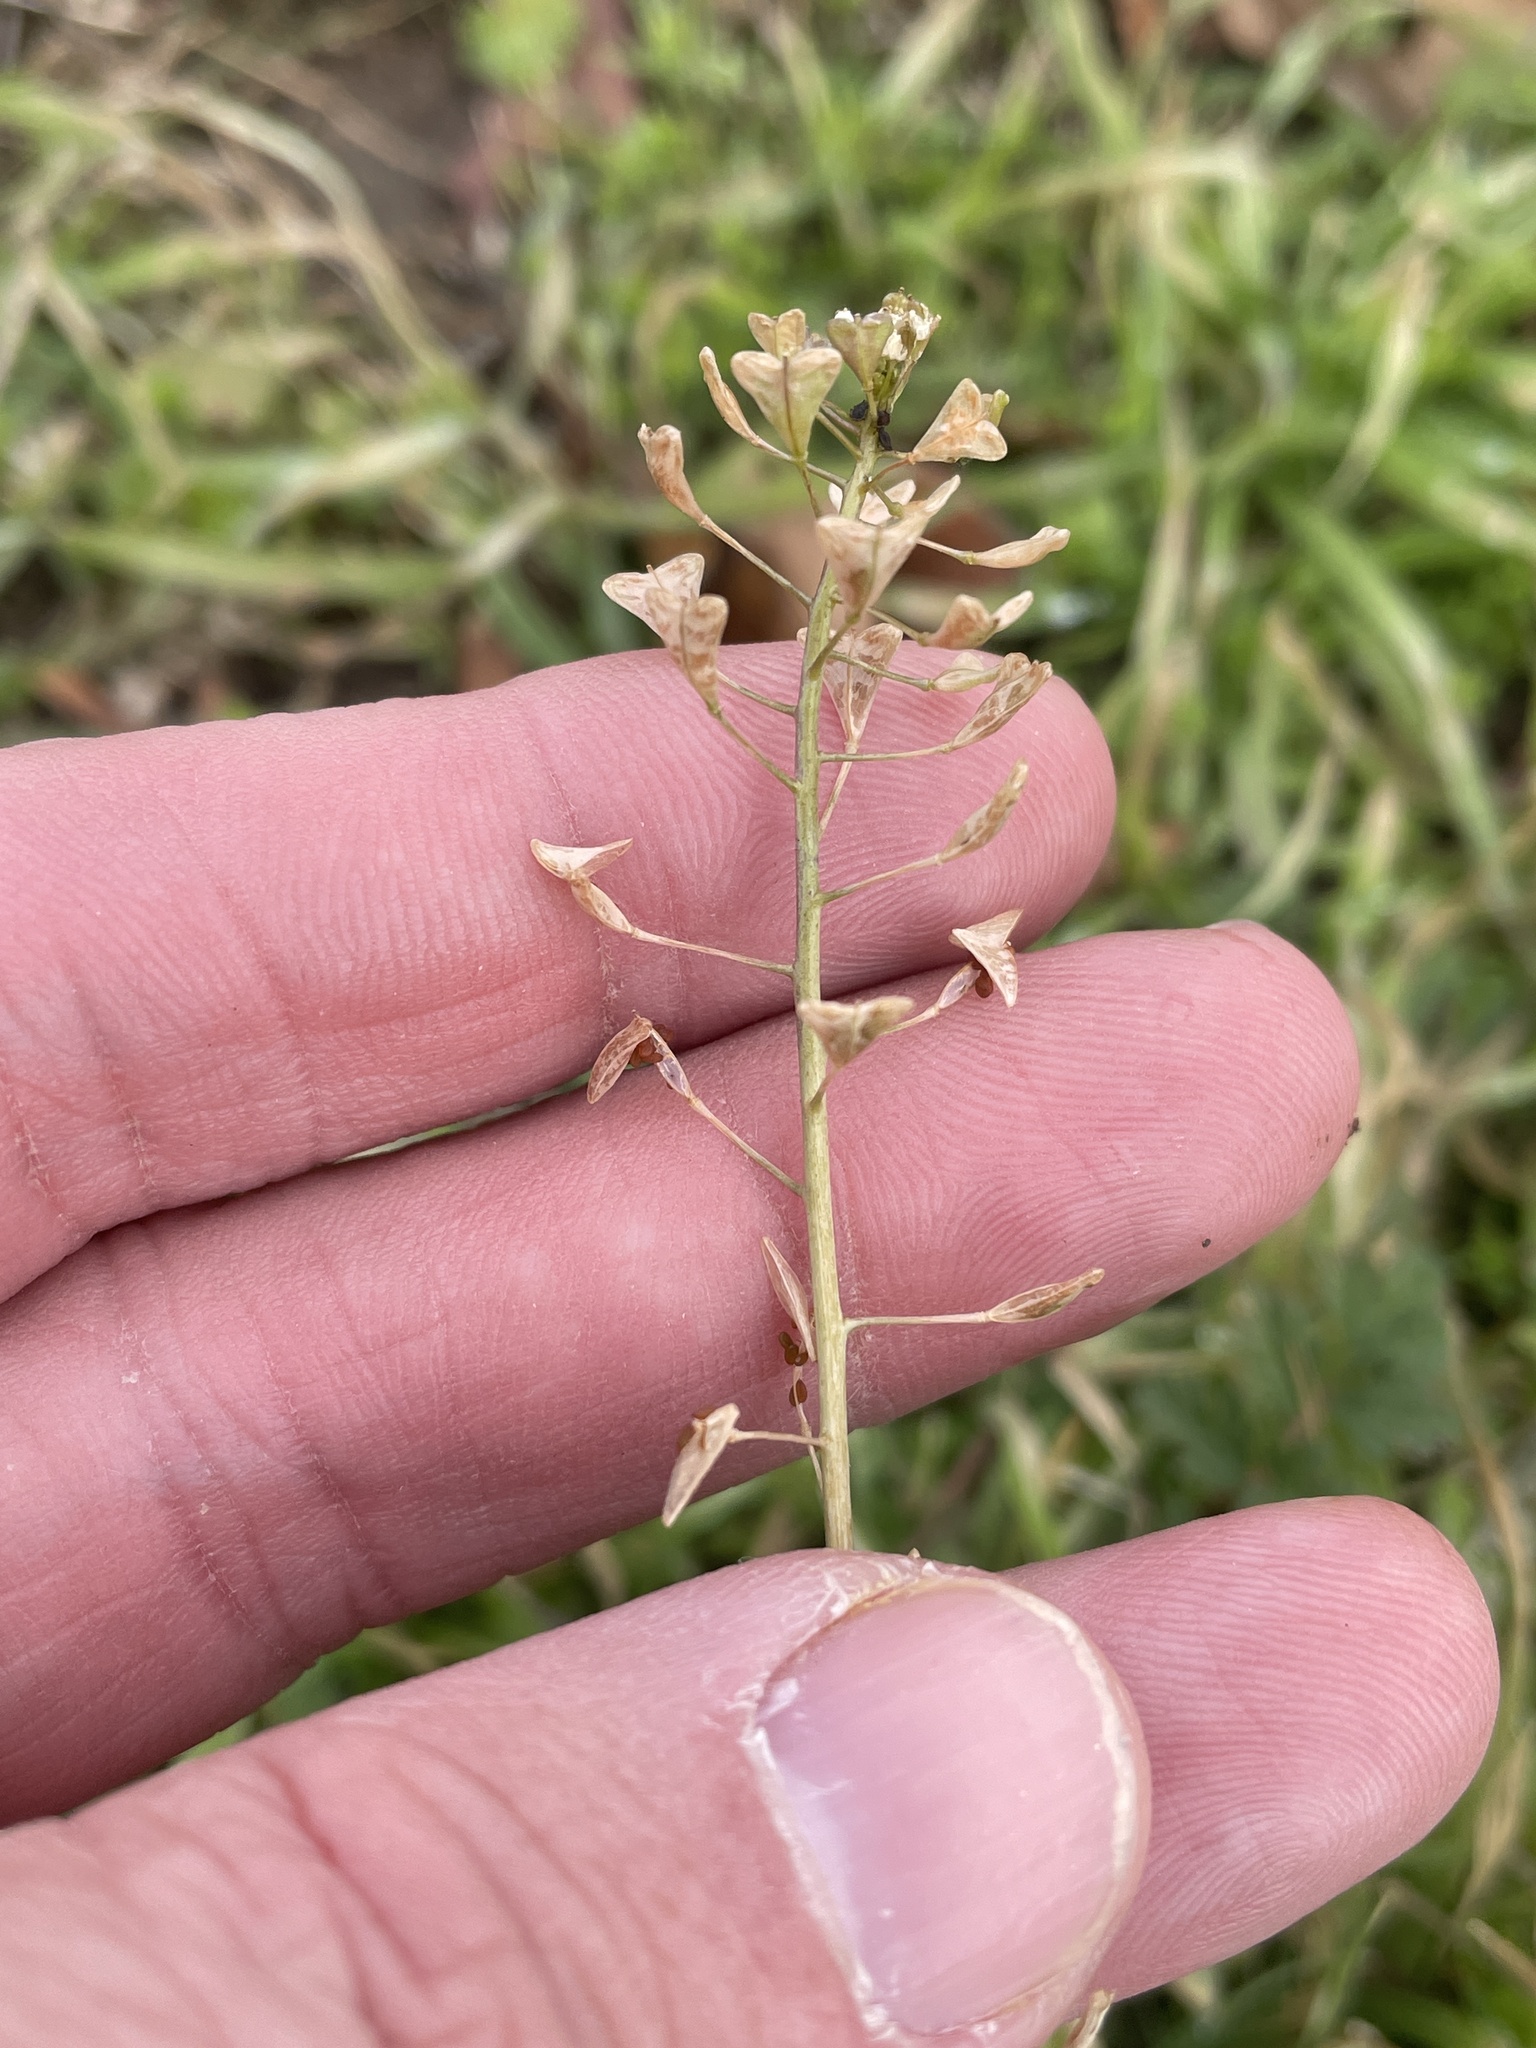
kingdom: Plantae
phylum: Tracheophyta
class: Magnoliopsida
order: Brassicales
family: Brassicaceae
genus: Capsella
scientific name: Capsella bursa-pastoris
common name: Shepherd's purse
